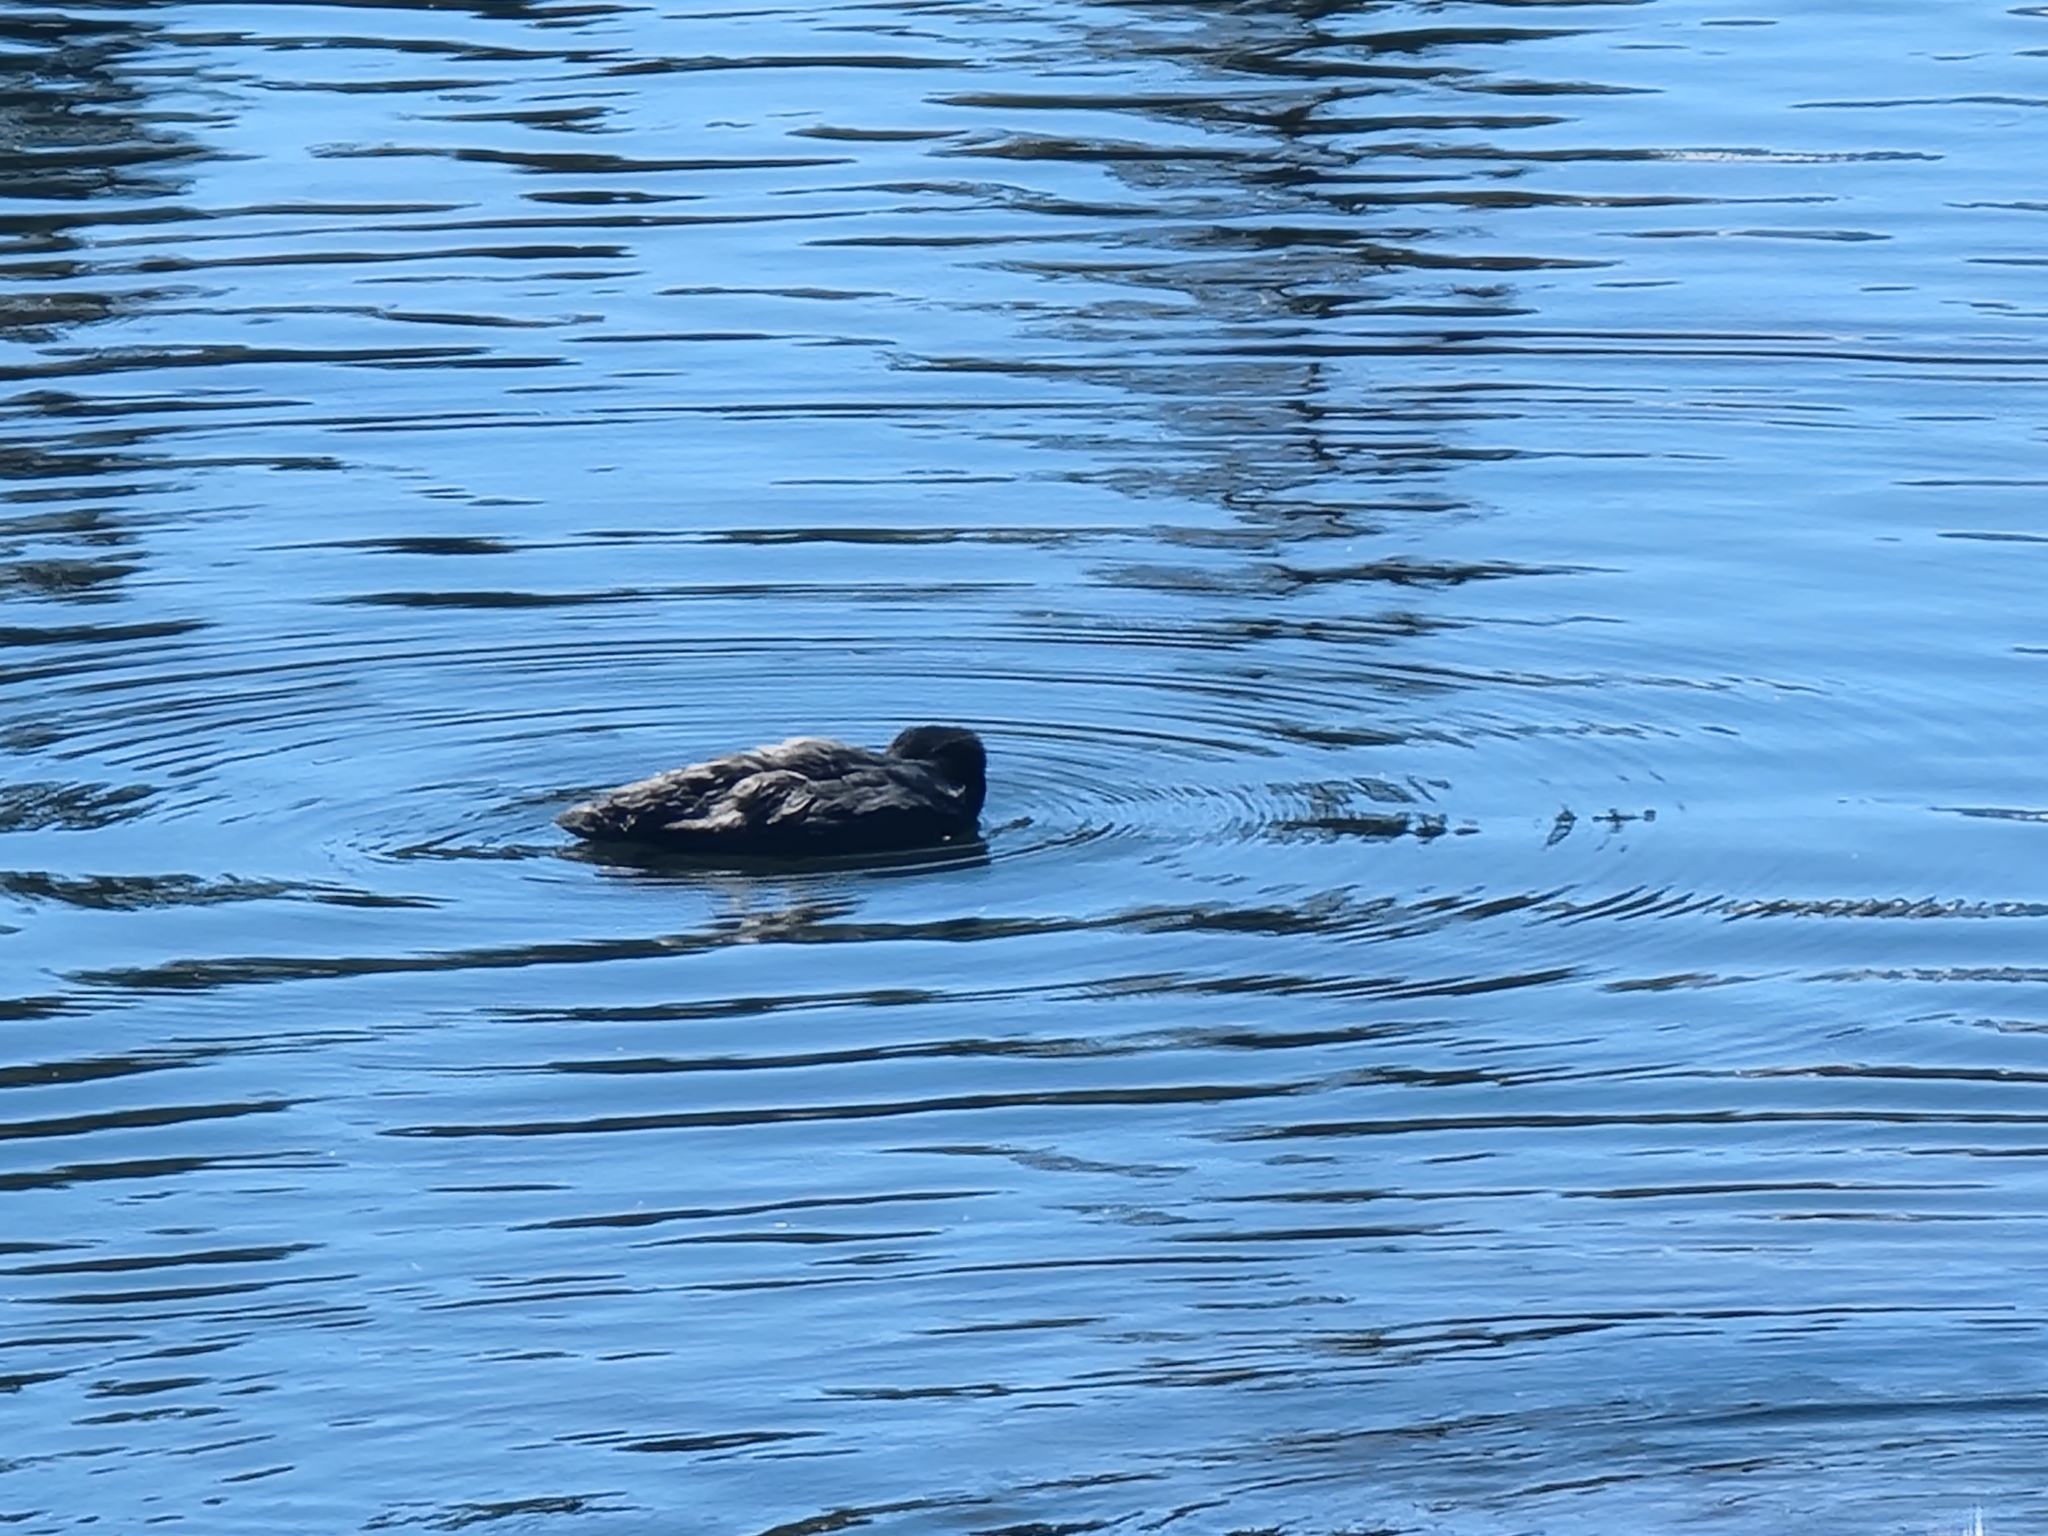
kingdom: Animalia
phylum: Chordata
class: Aves
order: Gruiformes
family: Rallidae
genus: Fulica
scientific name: Fulica americana
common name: American coot
